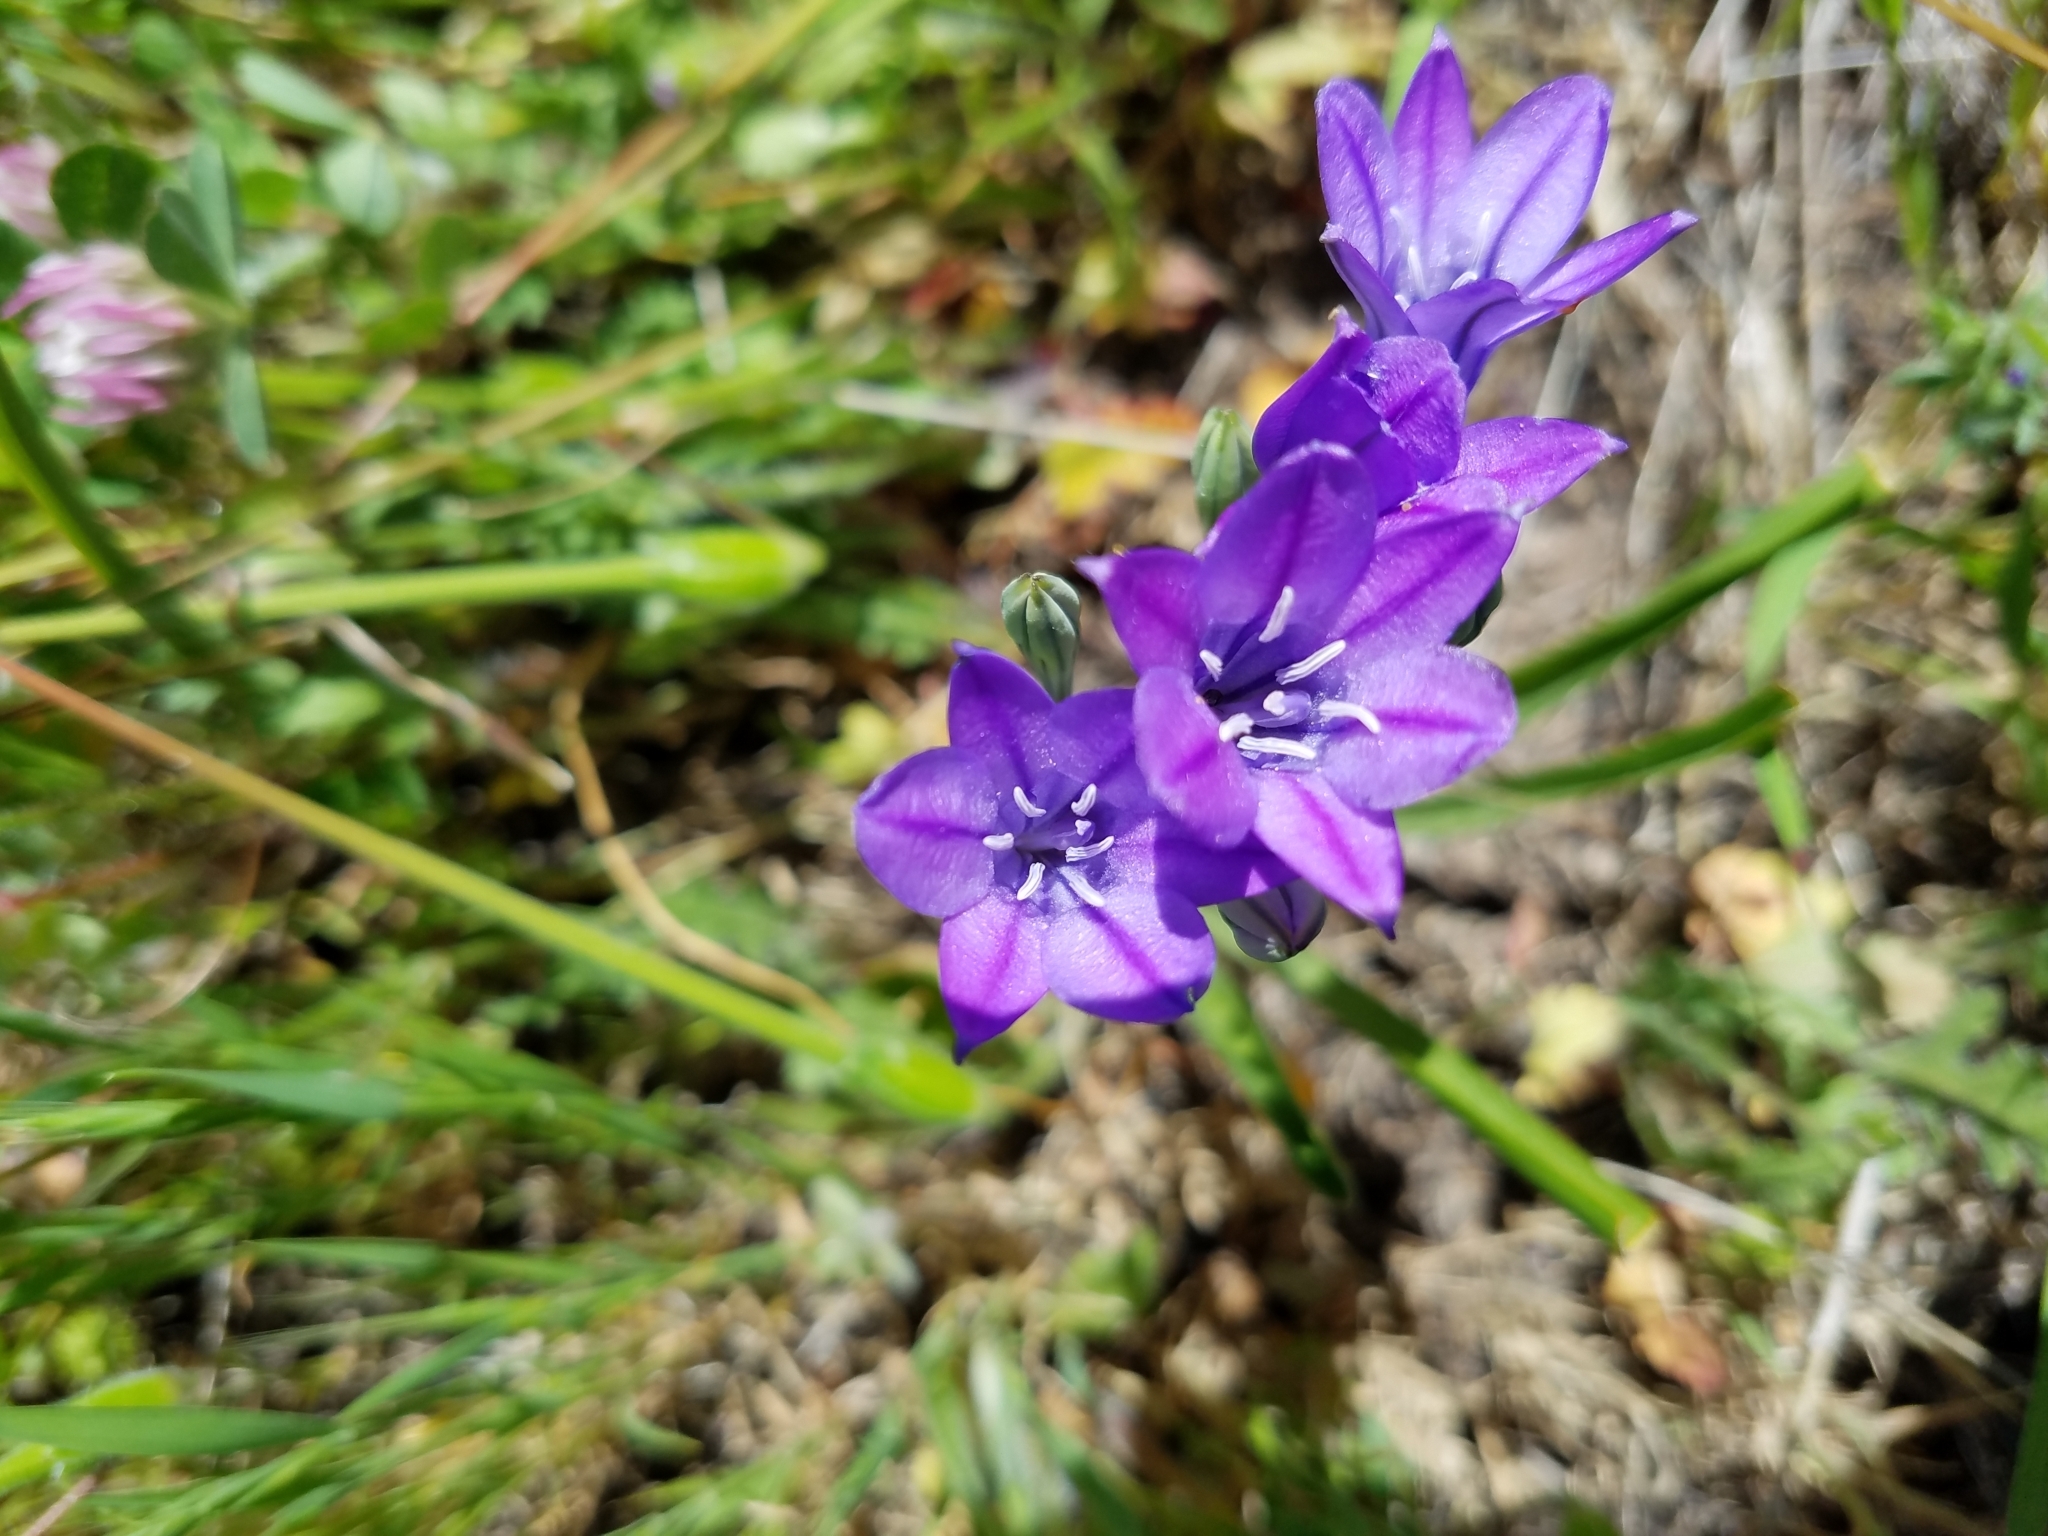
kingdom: Plantae
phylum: Tracheophyta
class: Liliopsida
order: Asparagales
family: Asparagaceae
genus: Triteleia
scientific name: Triteleia laxa
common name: Triplet-lily
